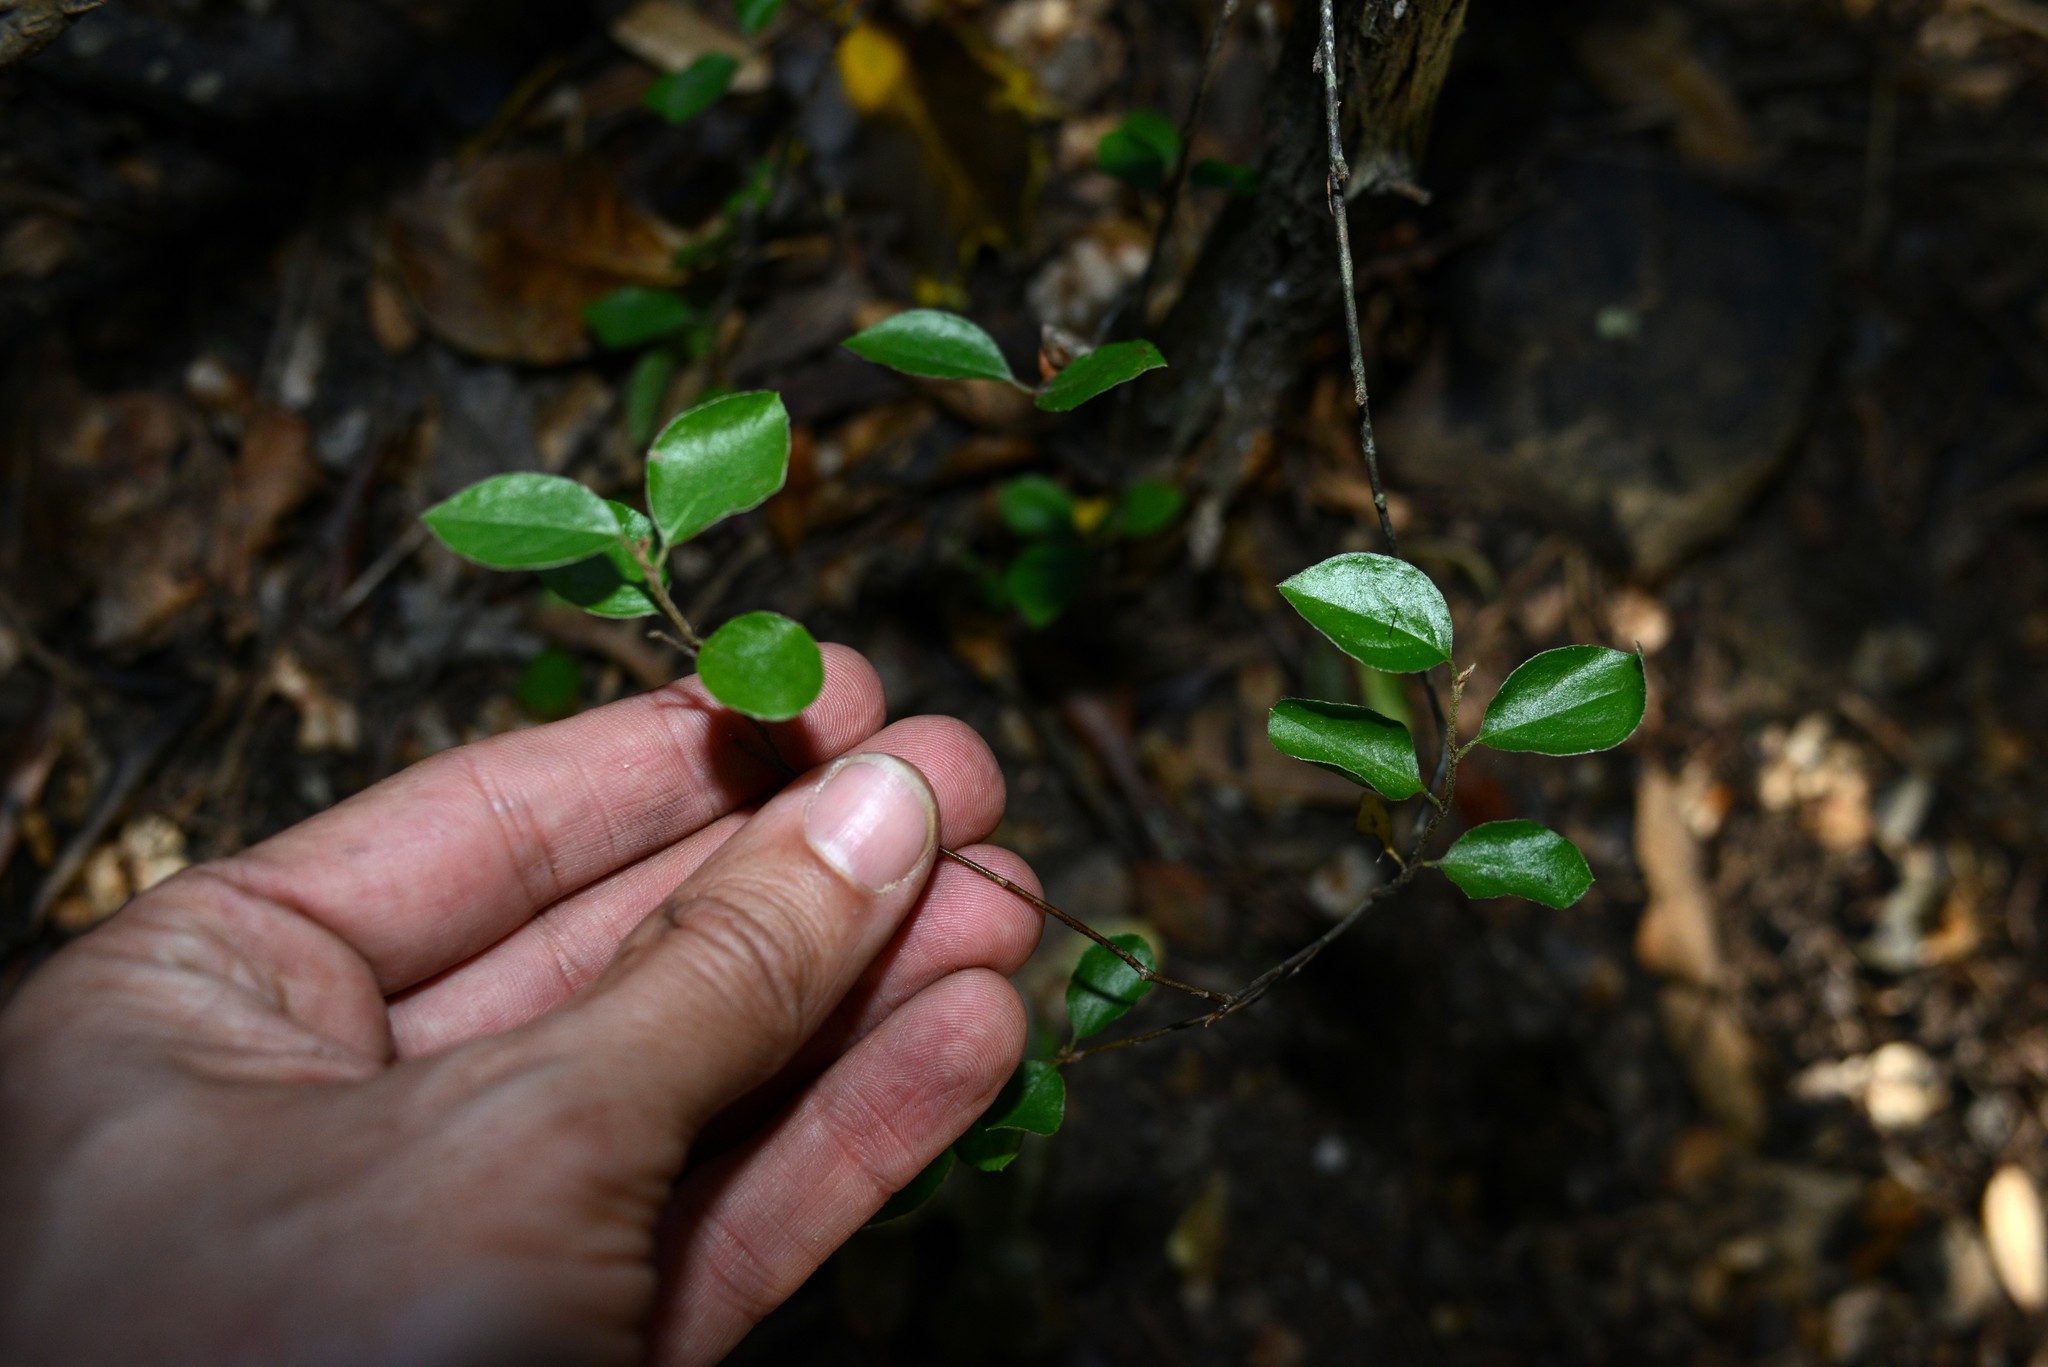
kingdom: Plantae
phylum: Tracheophyta
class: Magnoliopsida
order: Fagales
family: Nothofagaceae
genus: Nothofagus
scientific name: Nothofagus solandri
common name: Black beech
